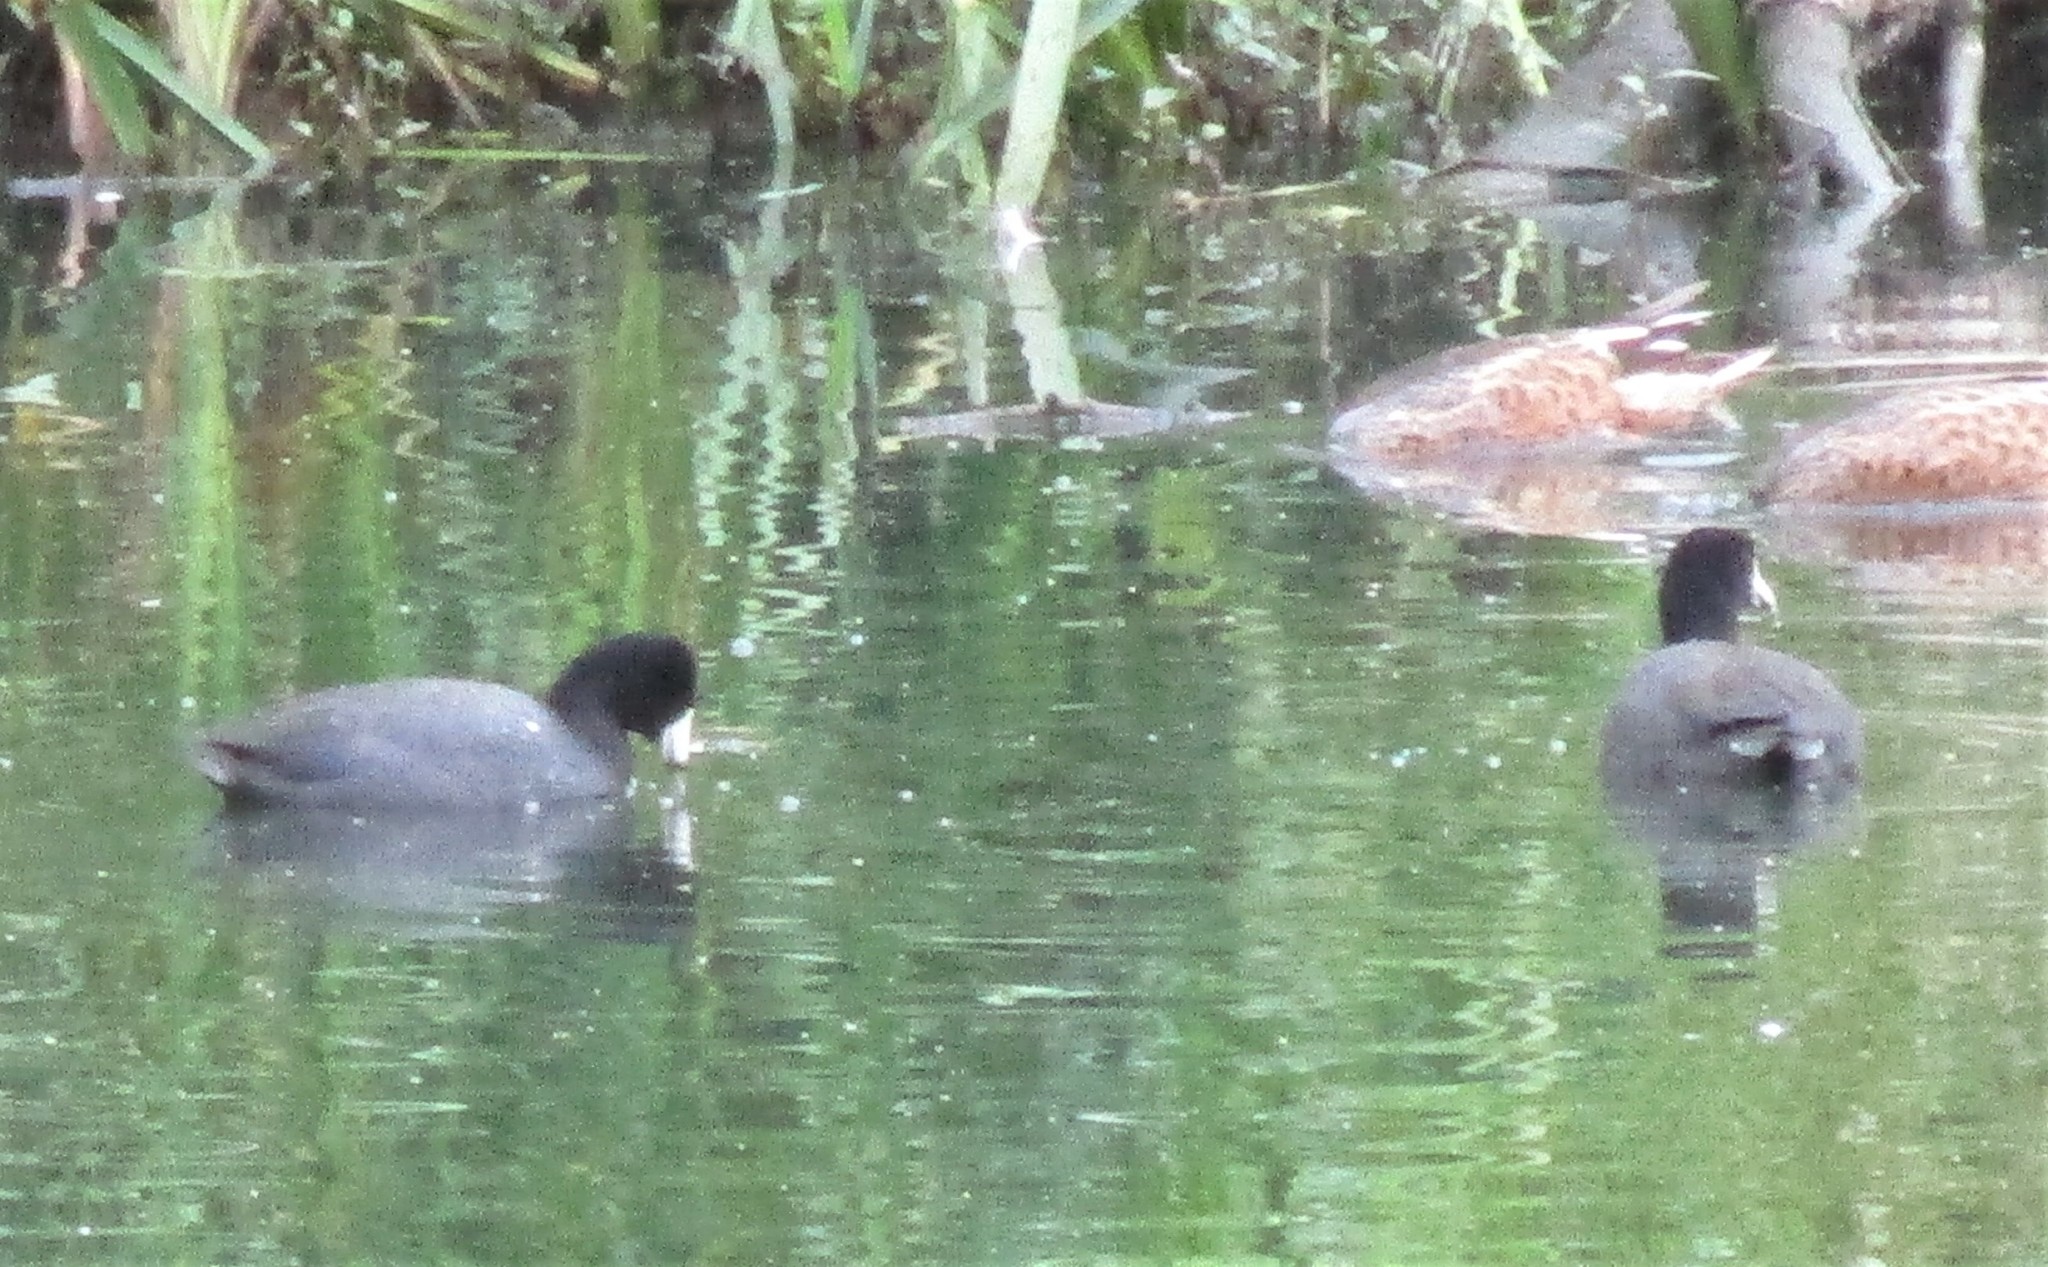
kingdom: Animalia
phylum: Chordata
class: Aves
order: Gruiformes
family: Rallidae
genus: Fulica
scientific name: Fulica americana
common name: American coot
